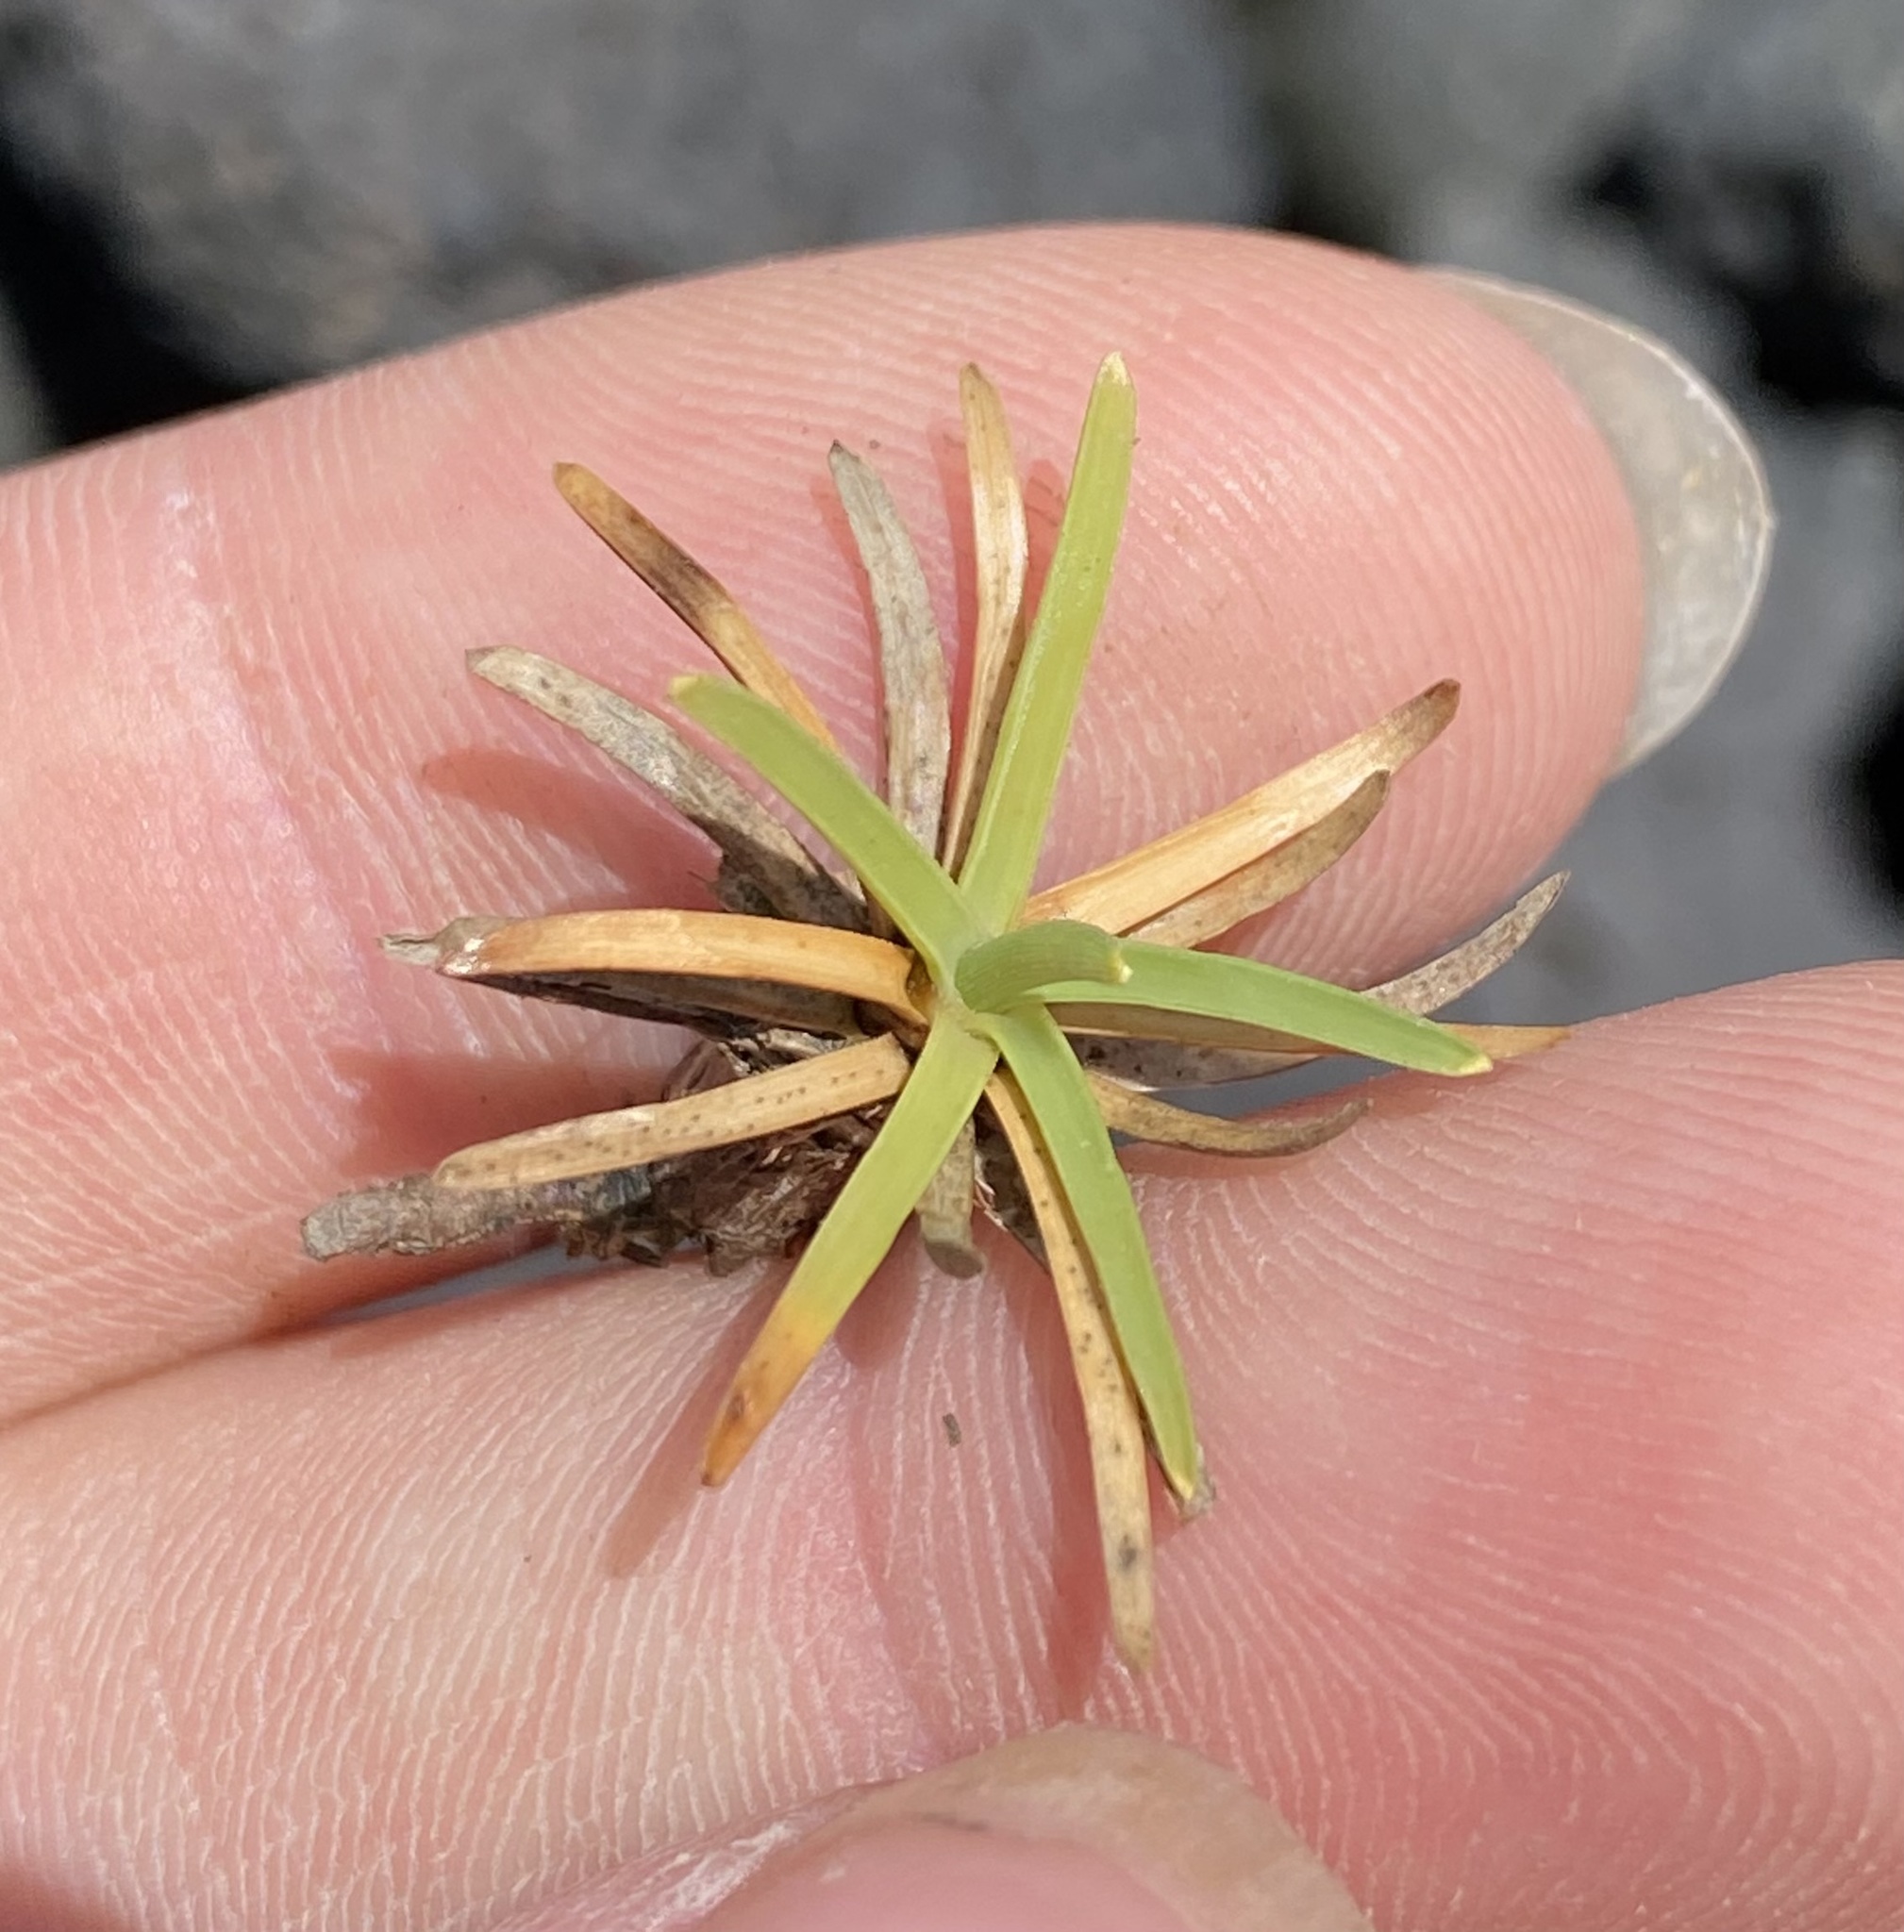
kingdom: Plantae
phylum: Tracheophyta
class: Liliopsida
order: Poales
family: Cyperaceae
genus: Fimbristylis
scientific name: Fimbristylis cymosa
